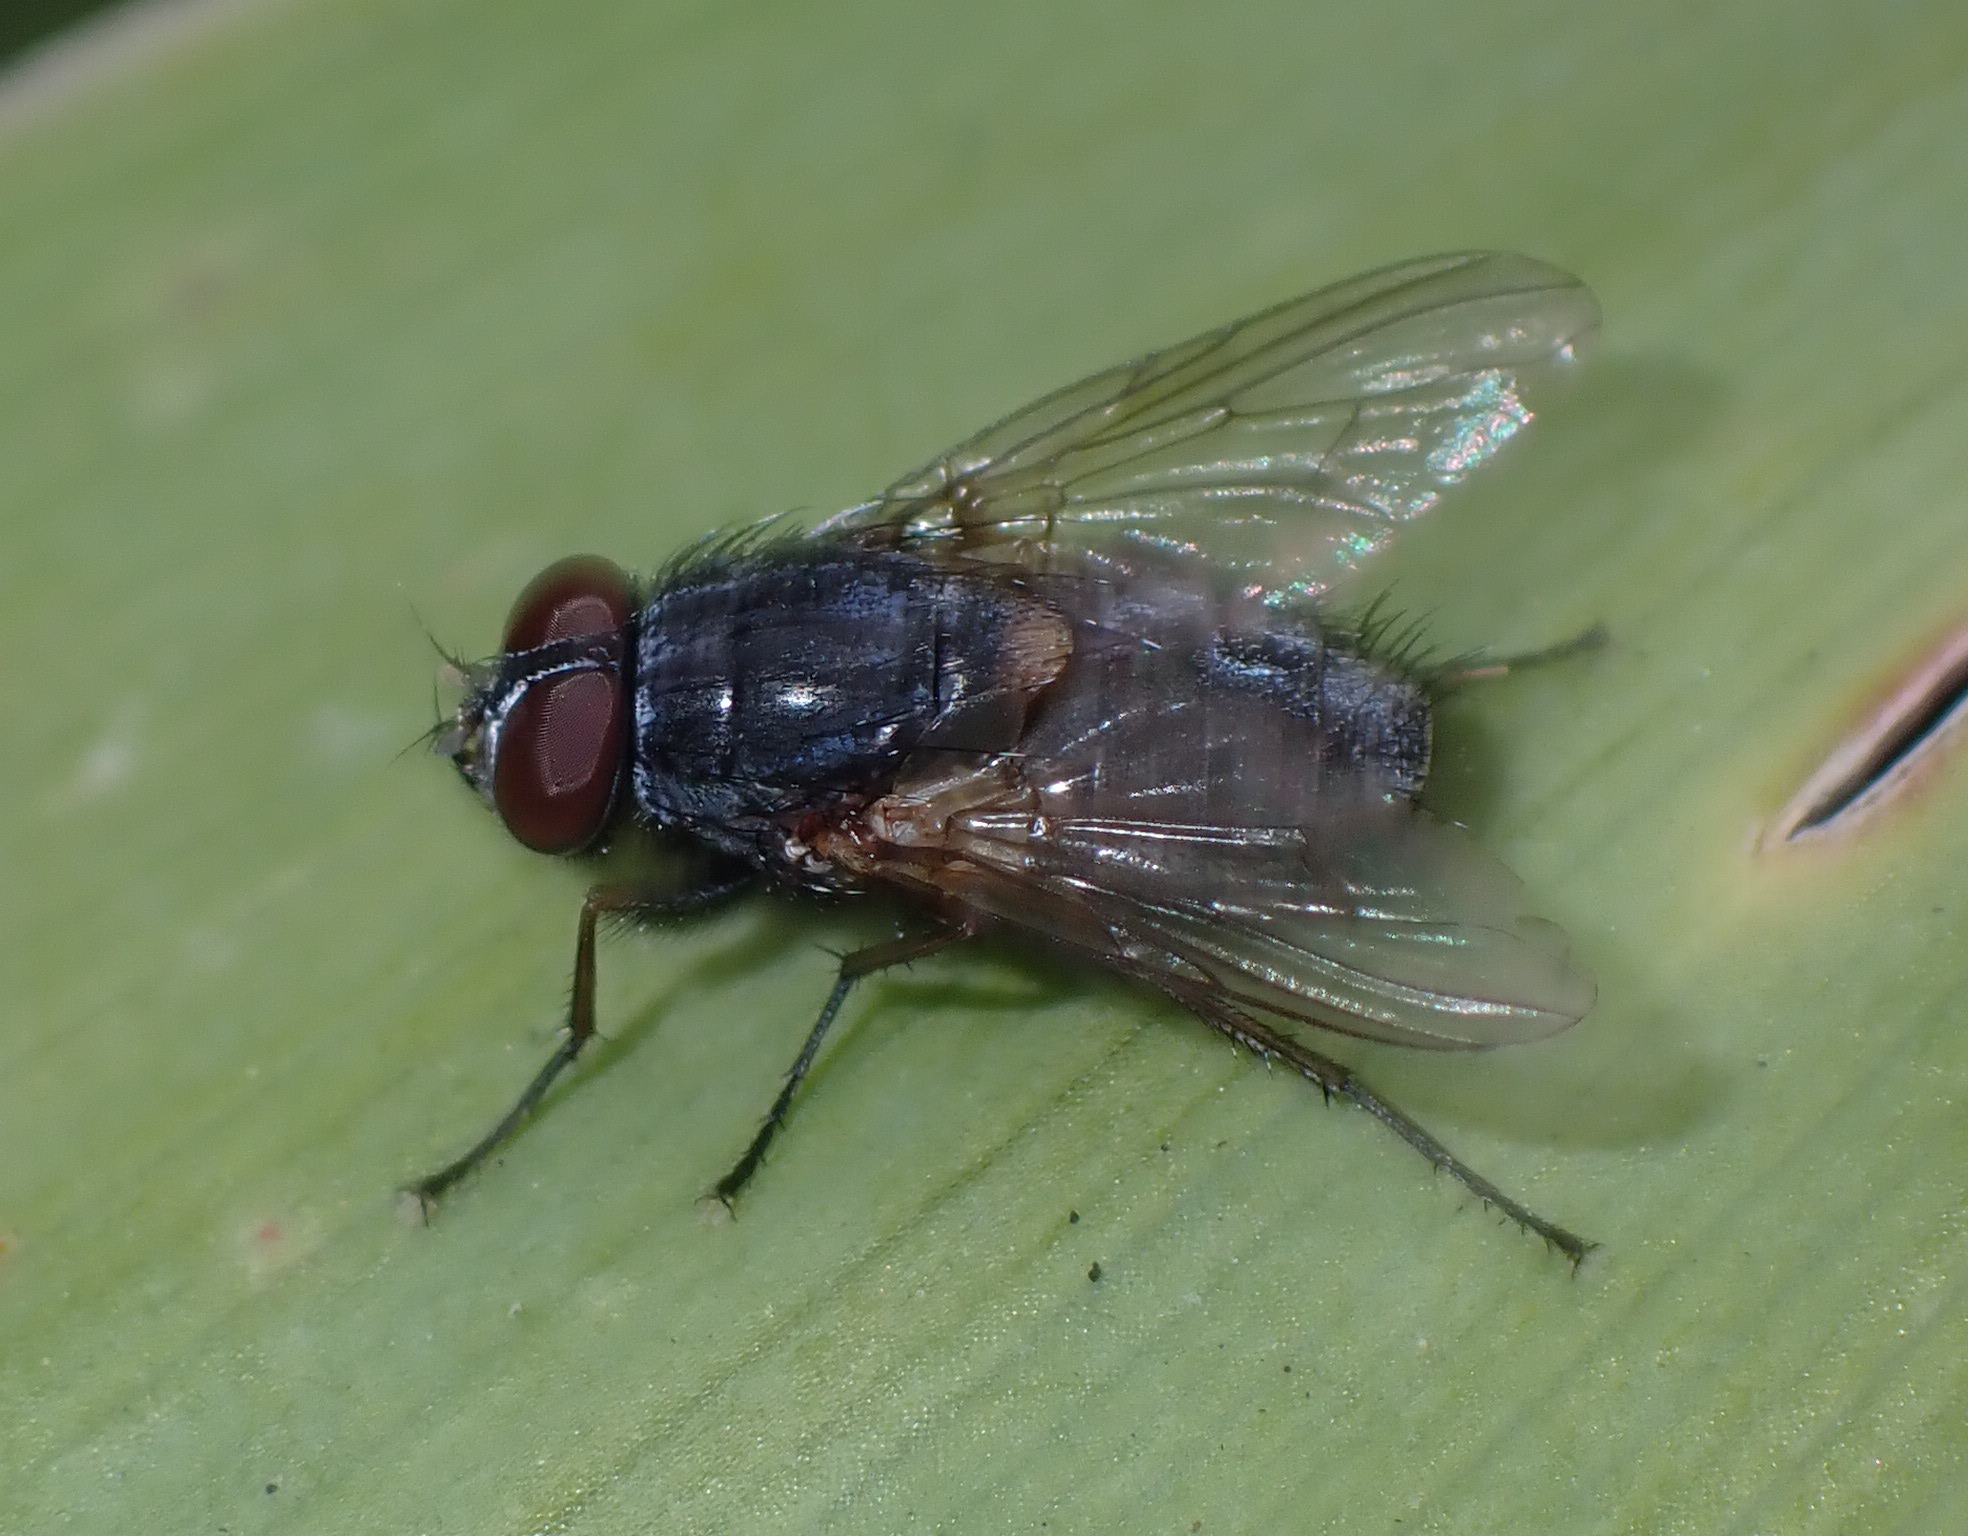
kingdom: Animalia
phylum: Arthropoda
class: Insecta
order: Diptera
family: Muscidae
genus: Muscina
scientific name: Muscina stabulans
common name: False stable fly
